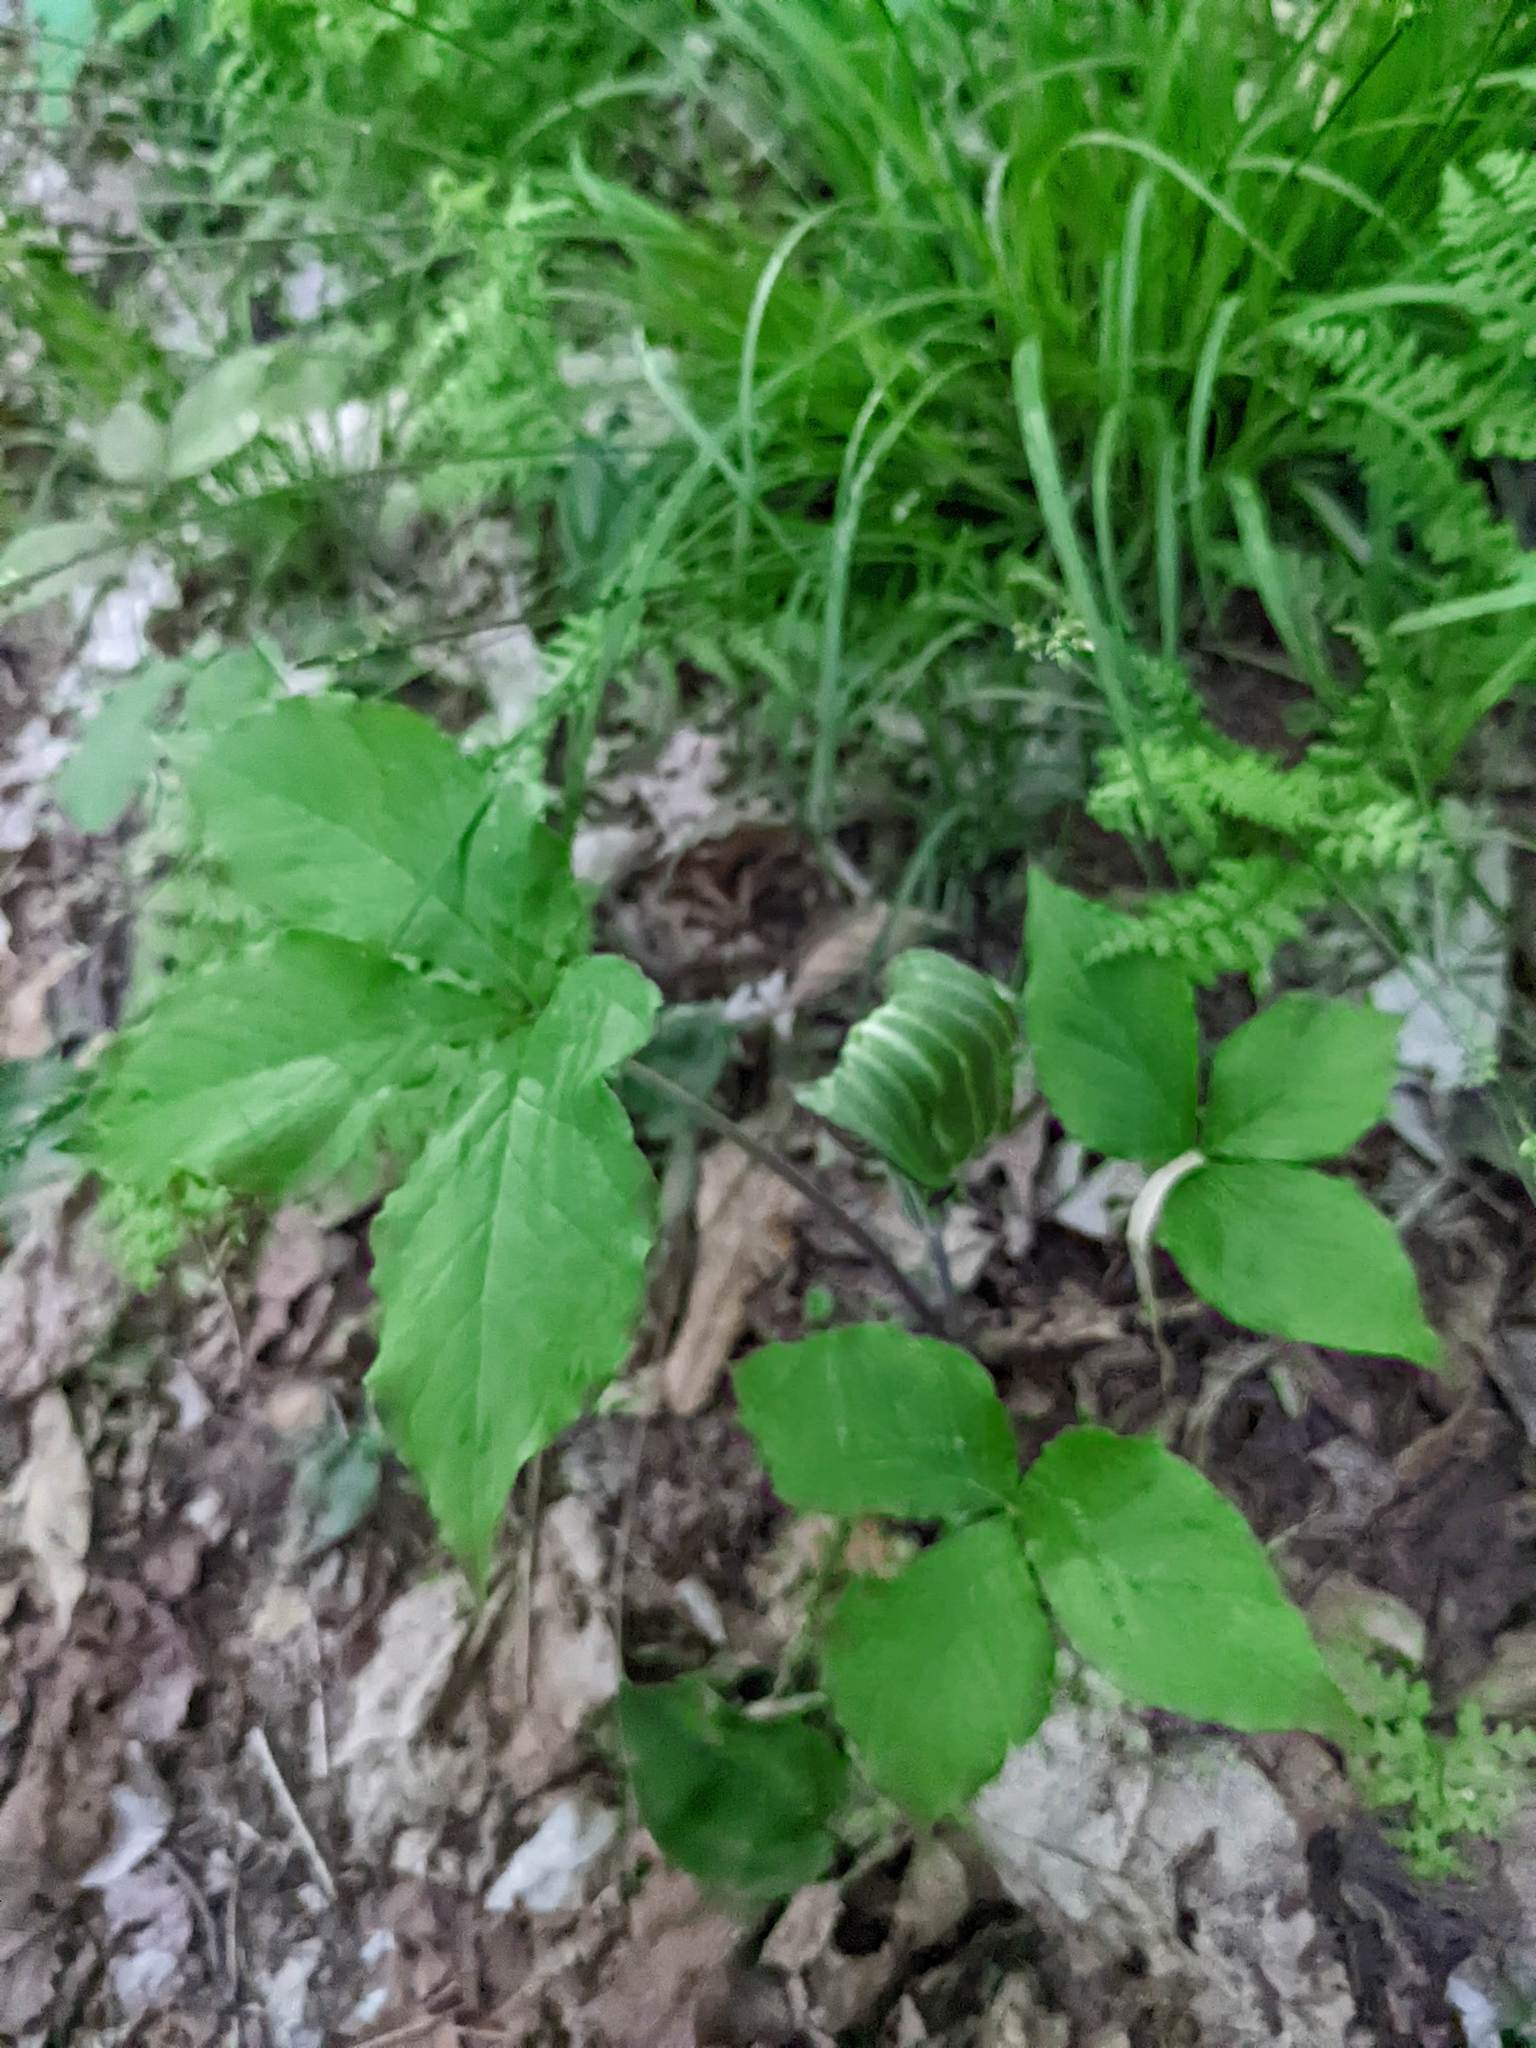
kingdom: Plantae
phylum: Tracheophyta
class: Liliopsida
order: Alismatales
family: Araceae
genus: Arisaema
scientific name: Arisaema triphyllum
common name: Jack-in-the-pulpit
